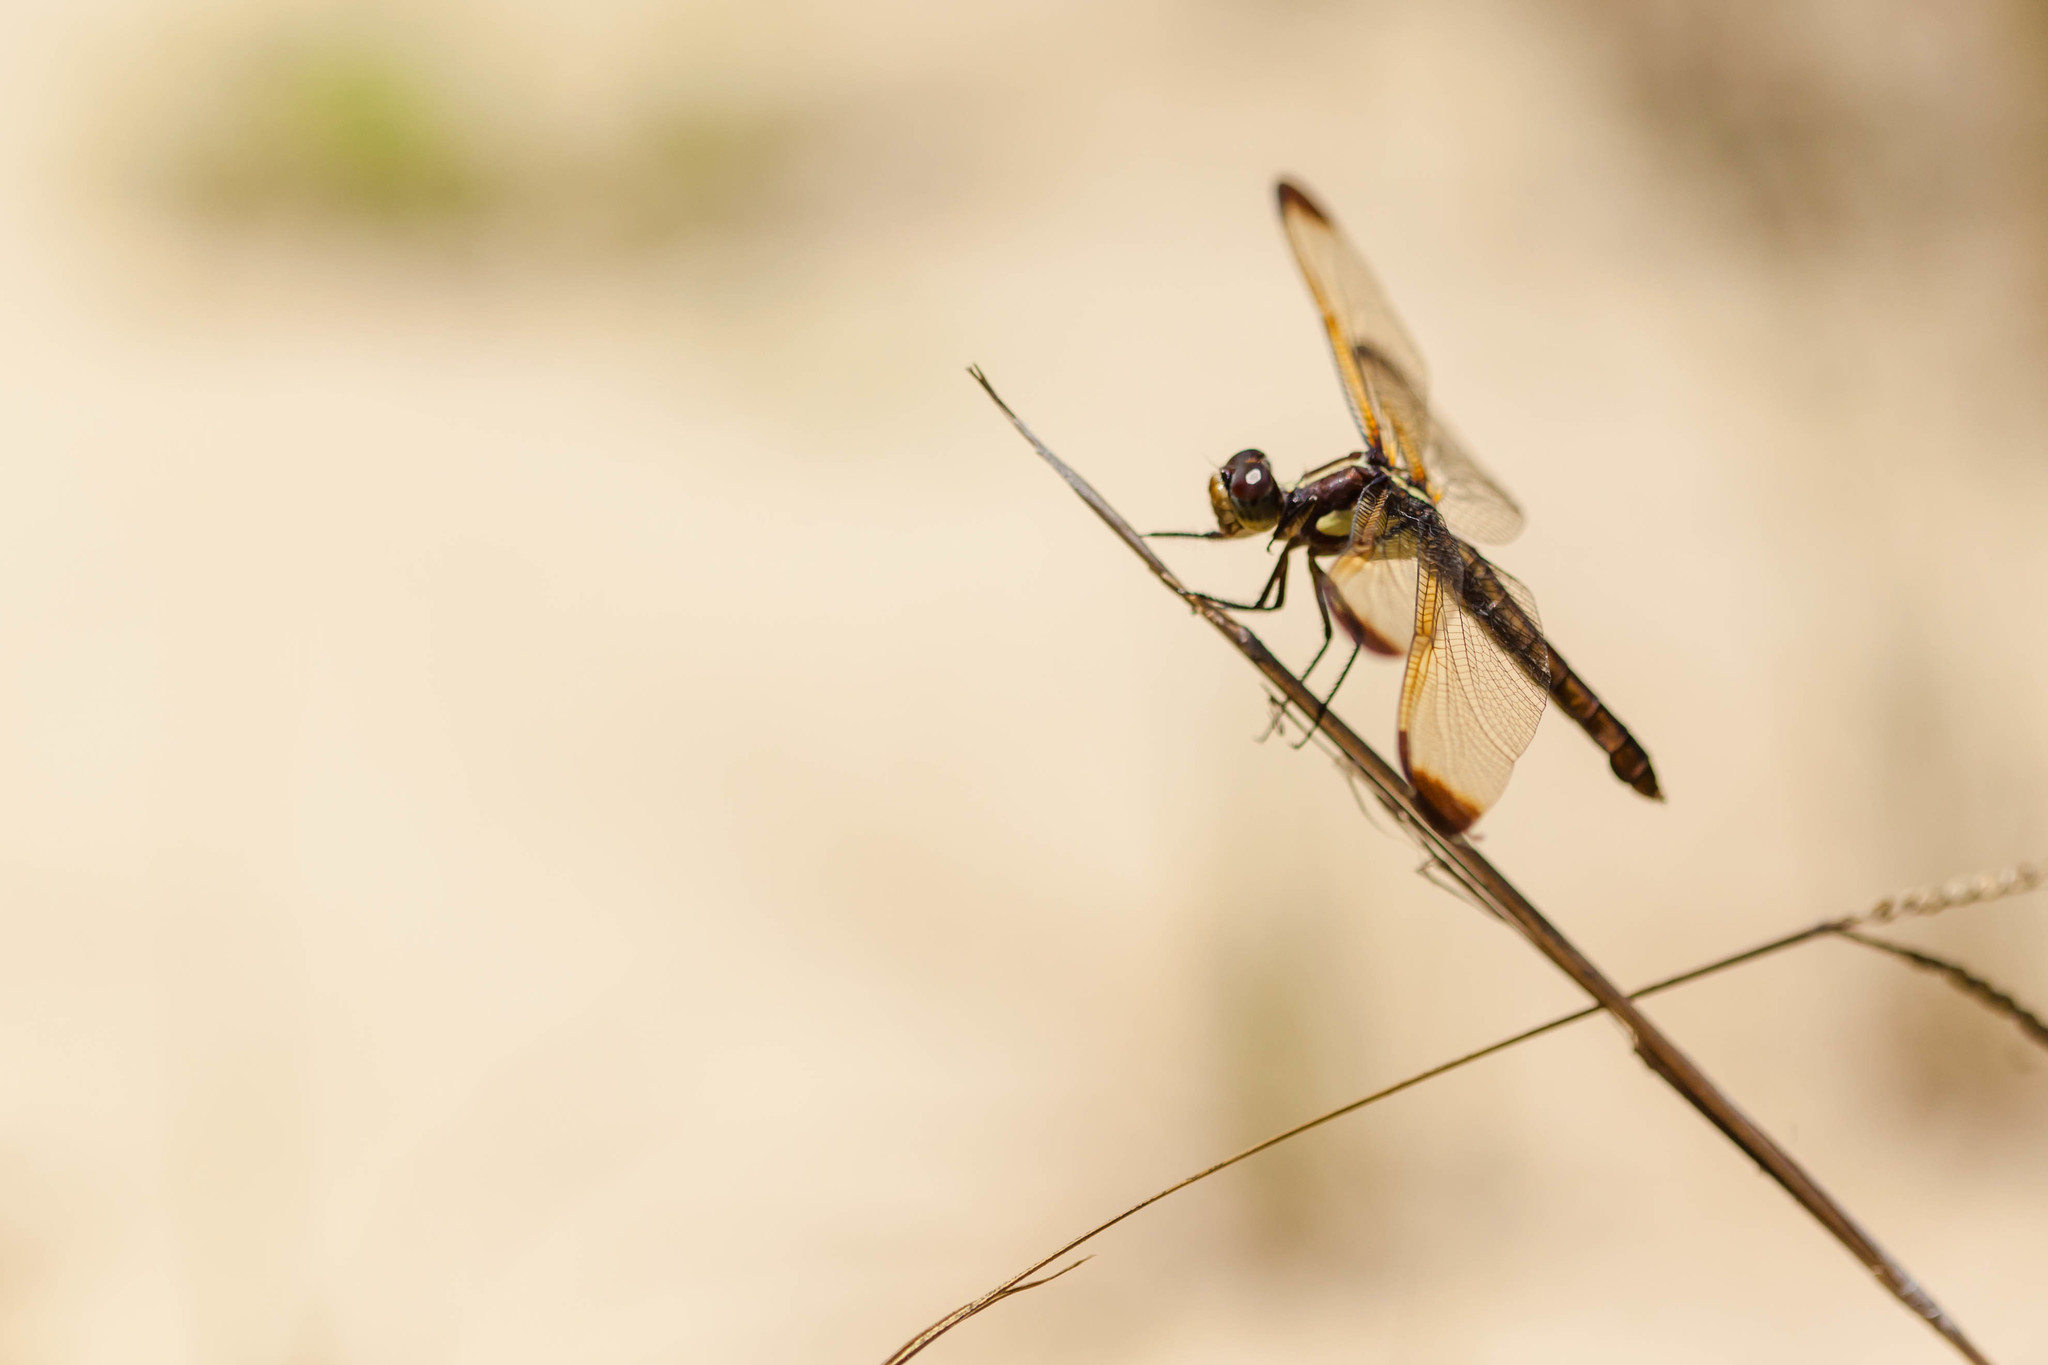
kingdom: Animalia
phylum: Arthropoda
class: Insecta
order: Odonata
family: Libellulidae
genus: Libellula
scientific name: Libellula flavida
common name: Yellow-sided skimmer
